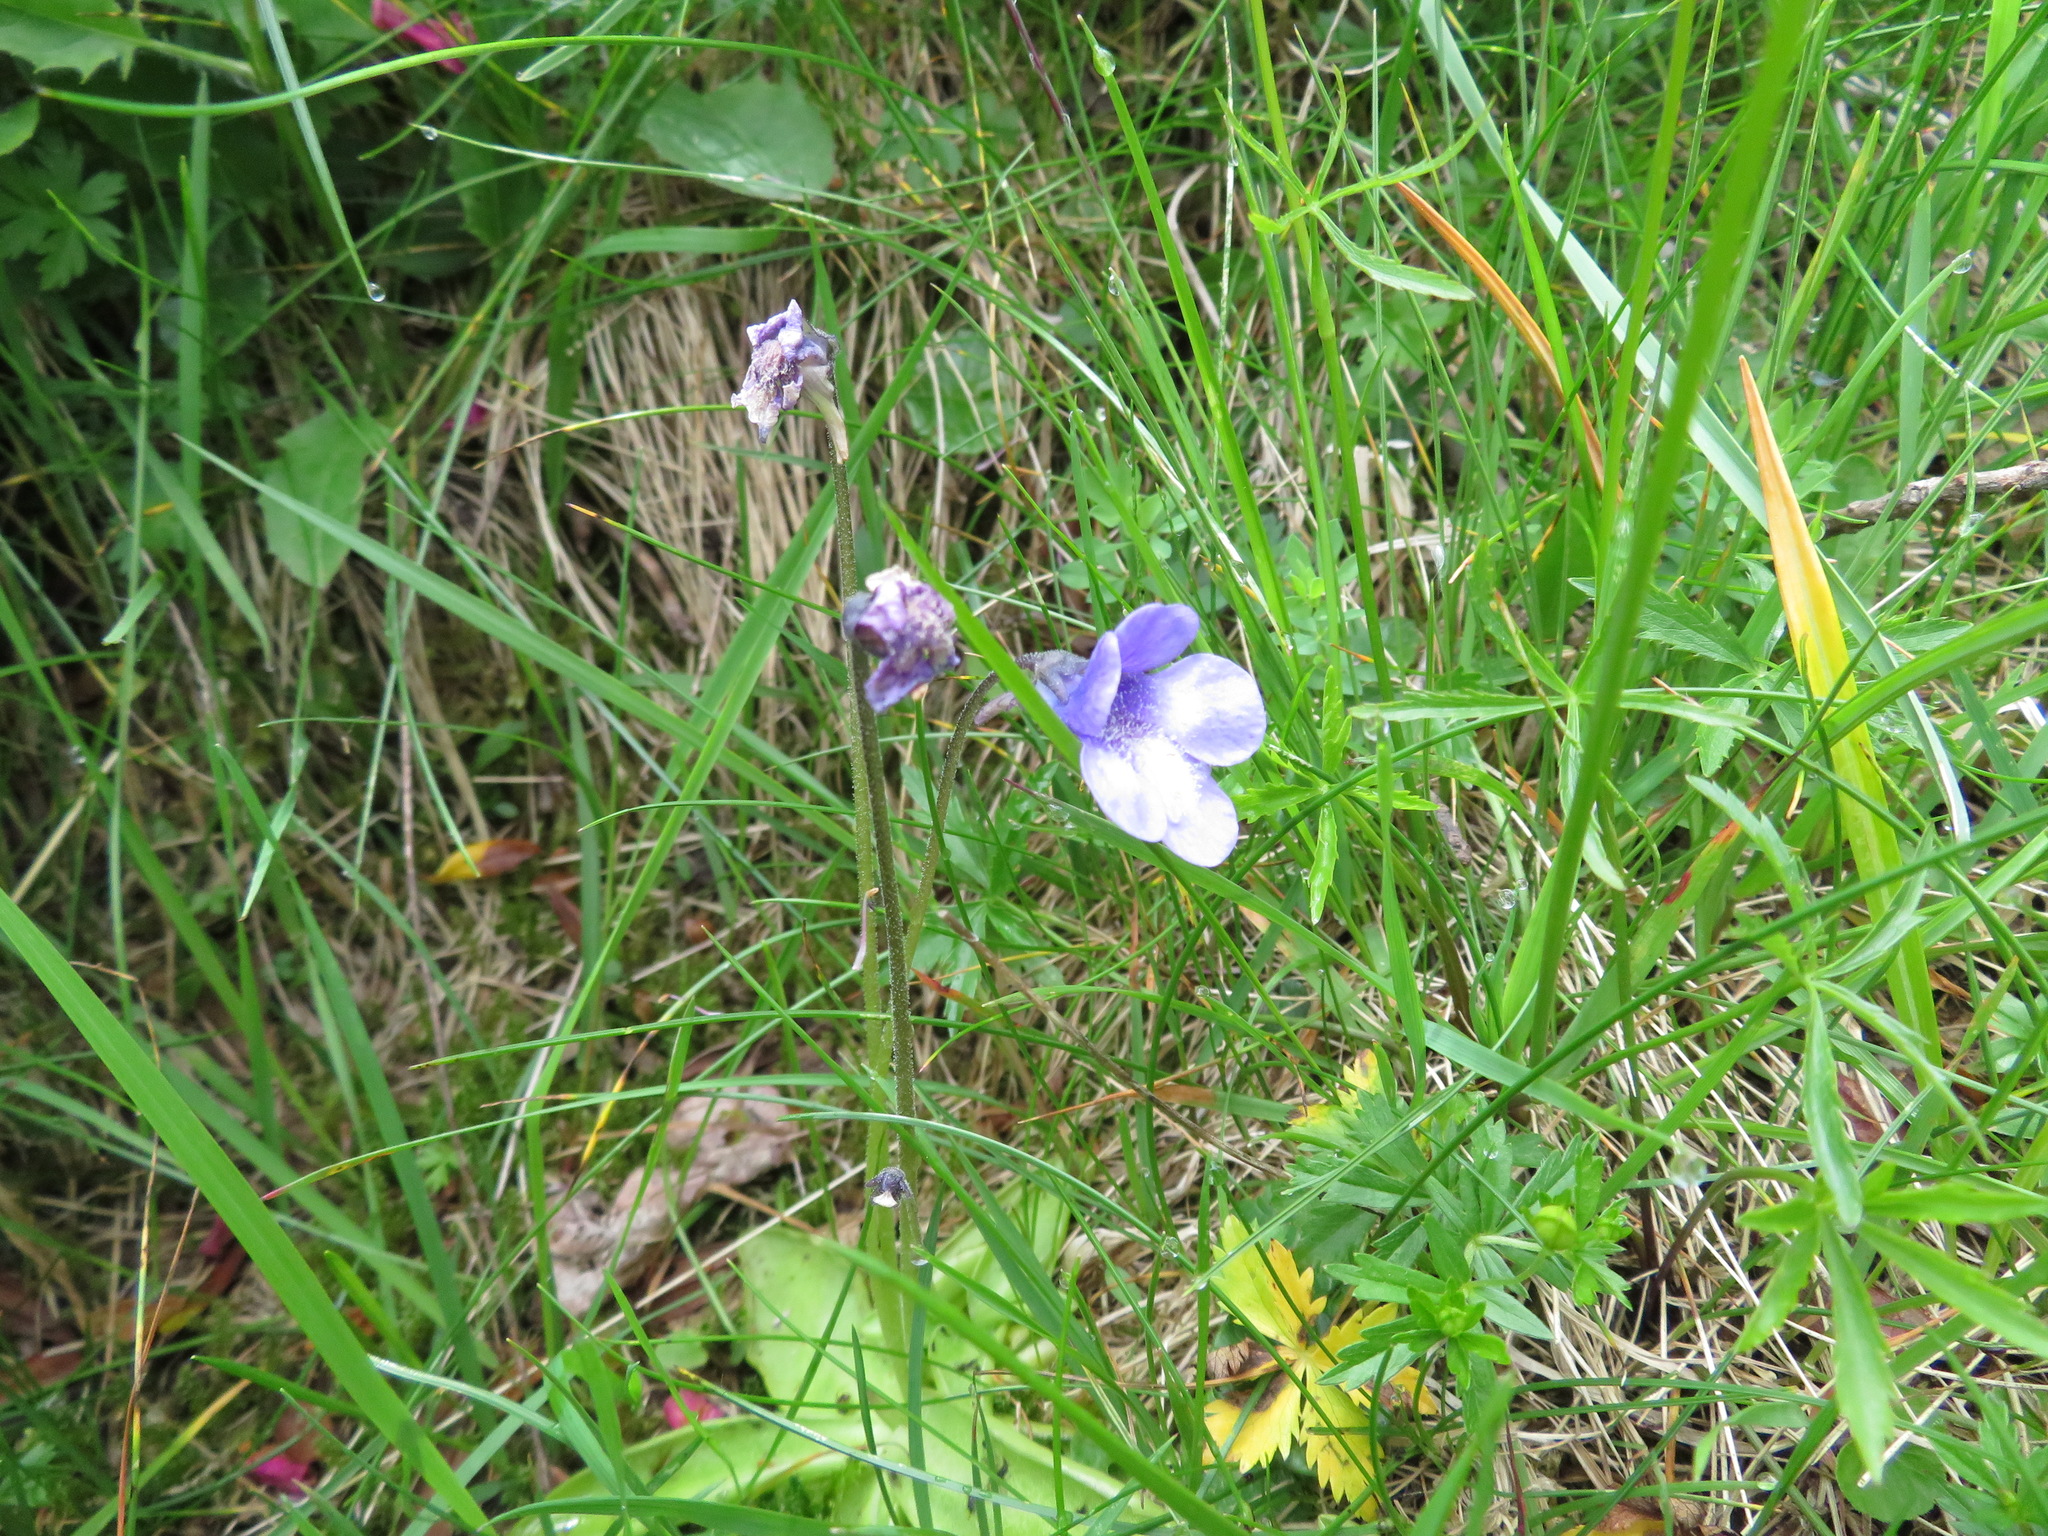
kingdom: Plantae
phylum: Tracheophyta
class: Magnoliopsida
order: Lamiales
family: Lentibulariaceae
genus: Pinguicula
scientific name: Pinguicula leptoceras
